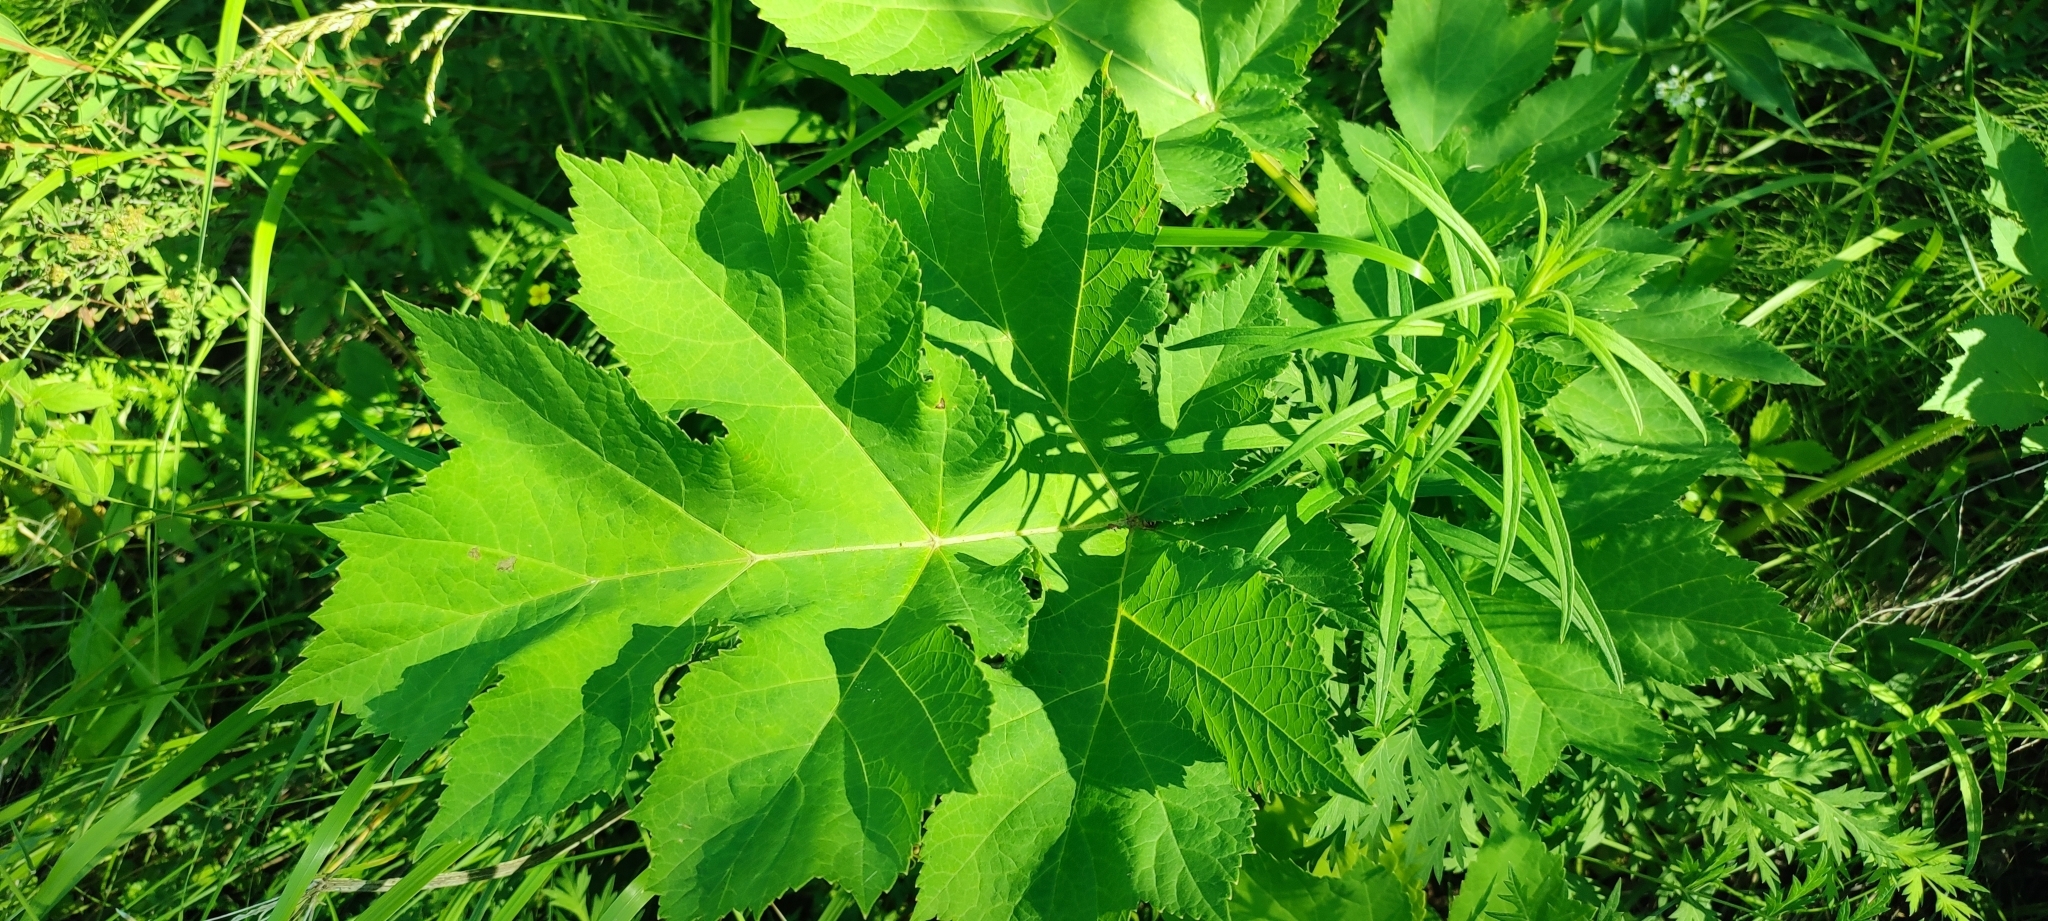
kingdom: Plantae
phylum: Tracheophyta
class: Magnoliopsida
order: Apiales
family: Apiaceae
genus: Heracleum
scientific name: Heracleum sphondylium
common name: Hogweed
